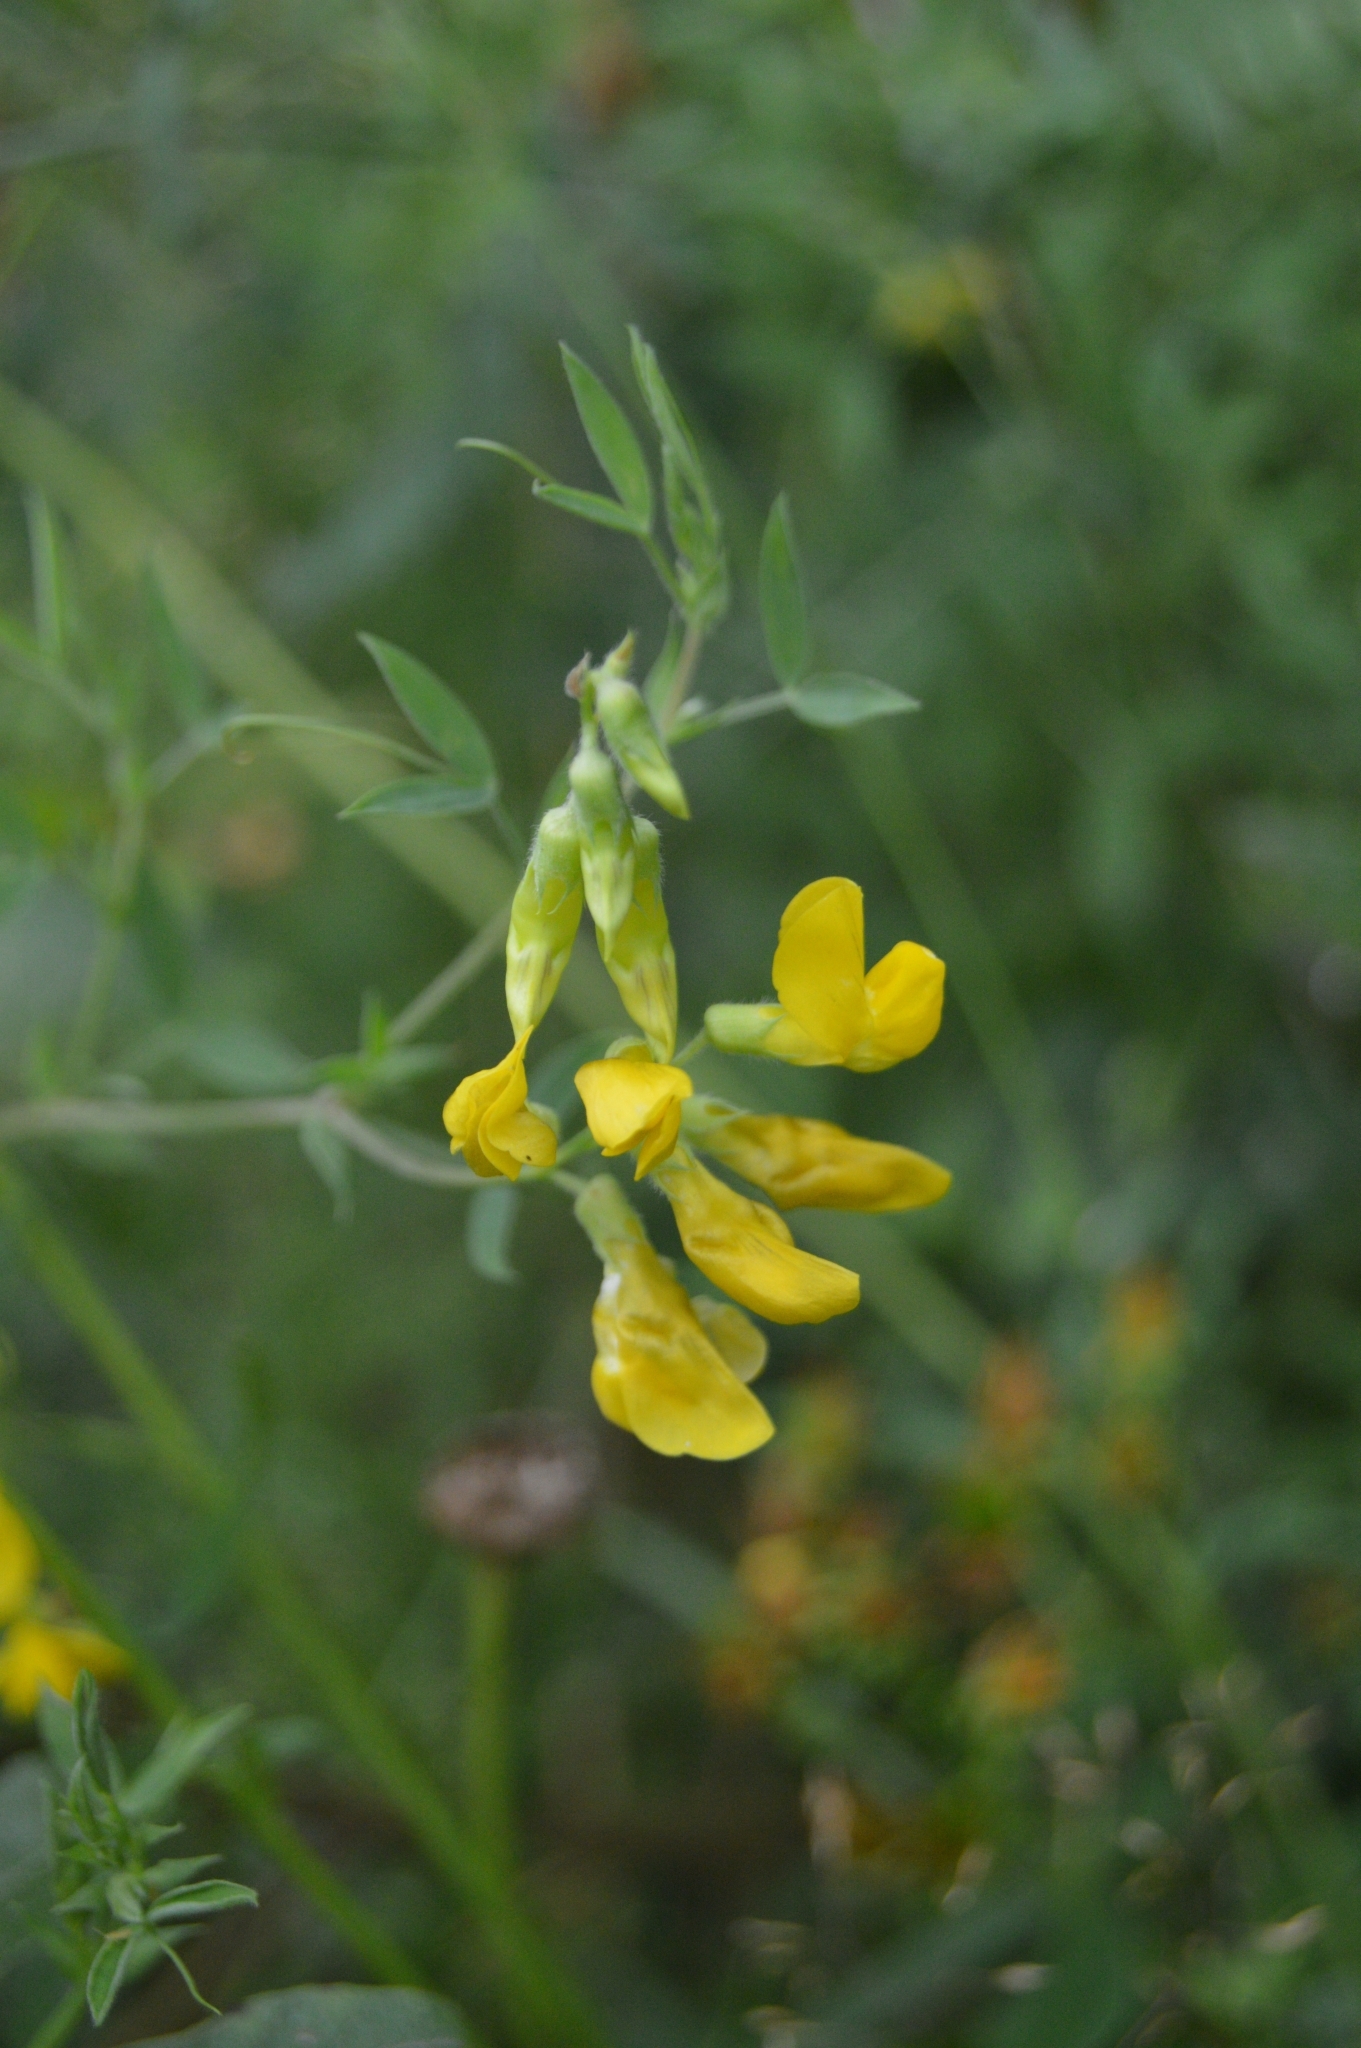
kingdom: Plantae
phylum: Tracheophyta
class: Magnoliopsida
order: Fabales
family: Fabaceae
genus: Lathyrus
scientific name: Lathyrus pratensis
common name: Meadow vetchling
